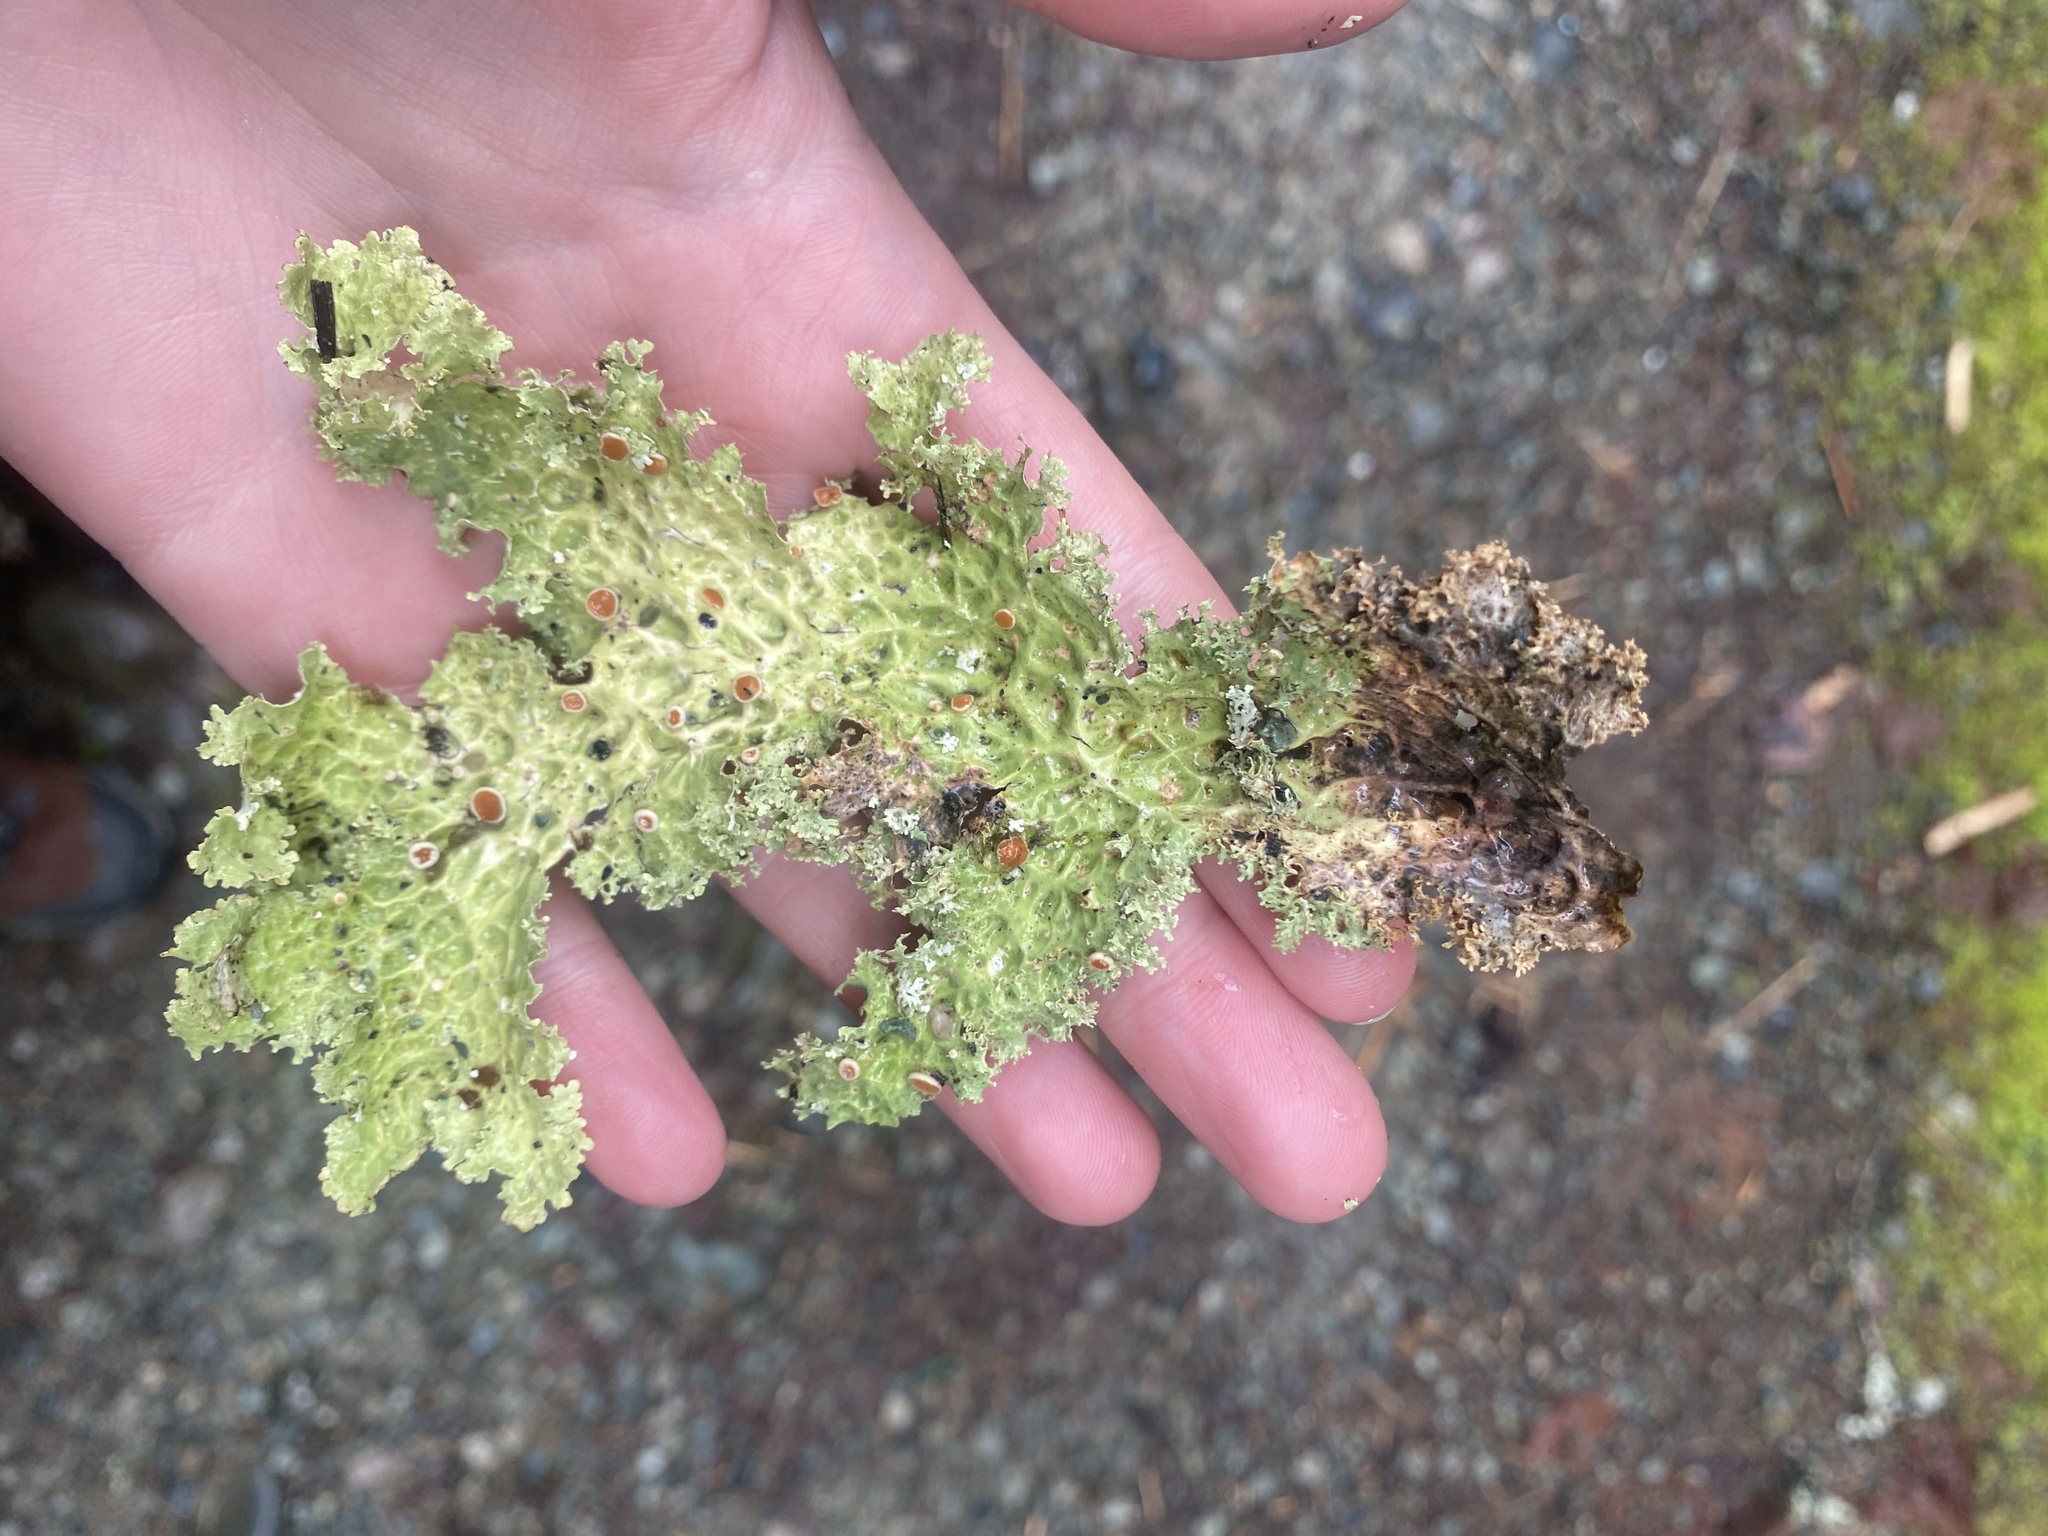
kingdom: Fungi
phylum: Ascomycota
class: Lecanoromycetes
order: Peltigerales
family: Lobariaceae
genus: Lobaria
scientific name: Lobaria oregana
